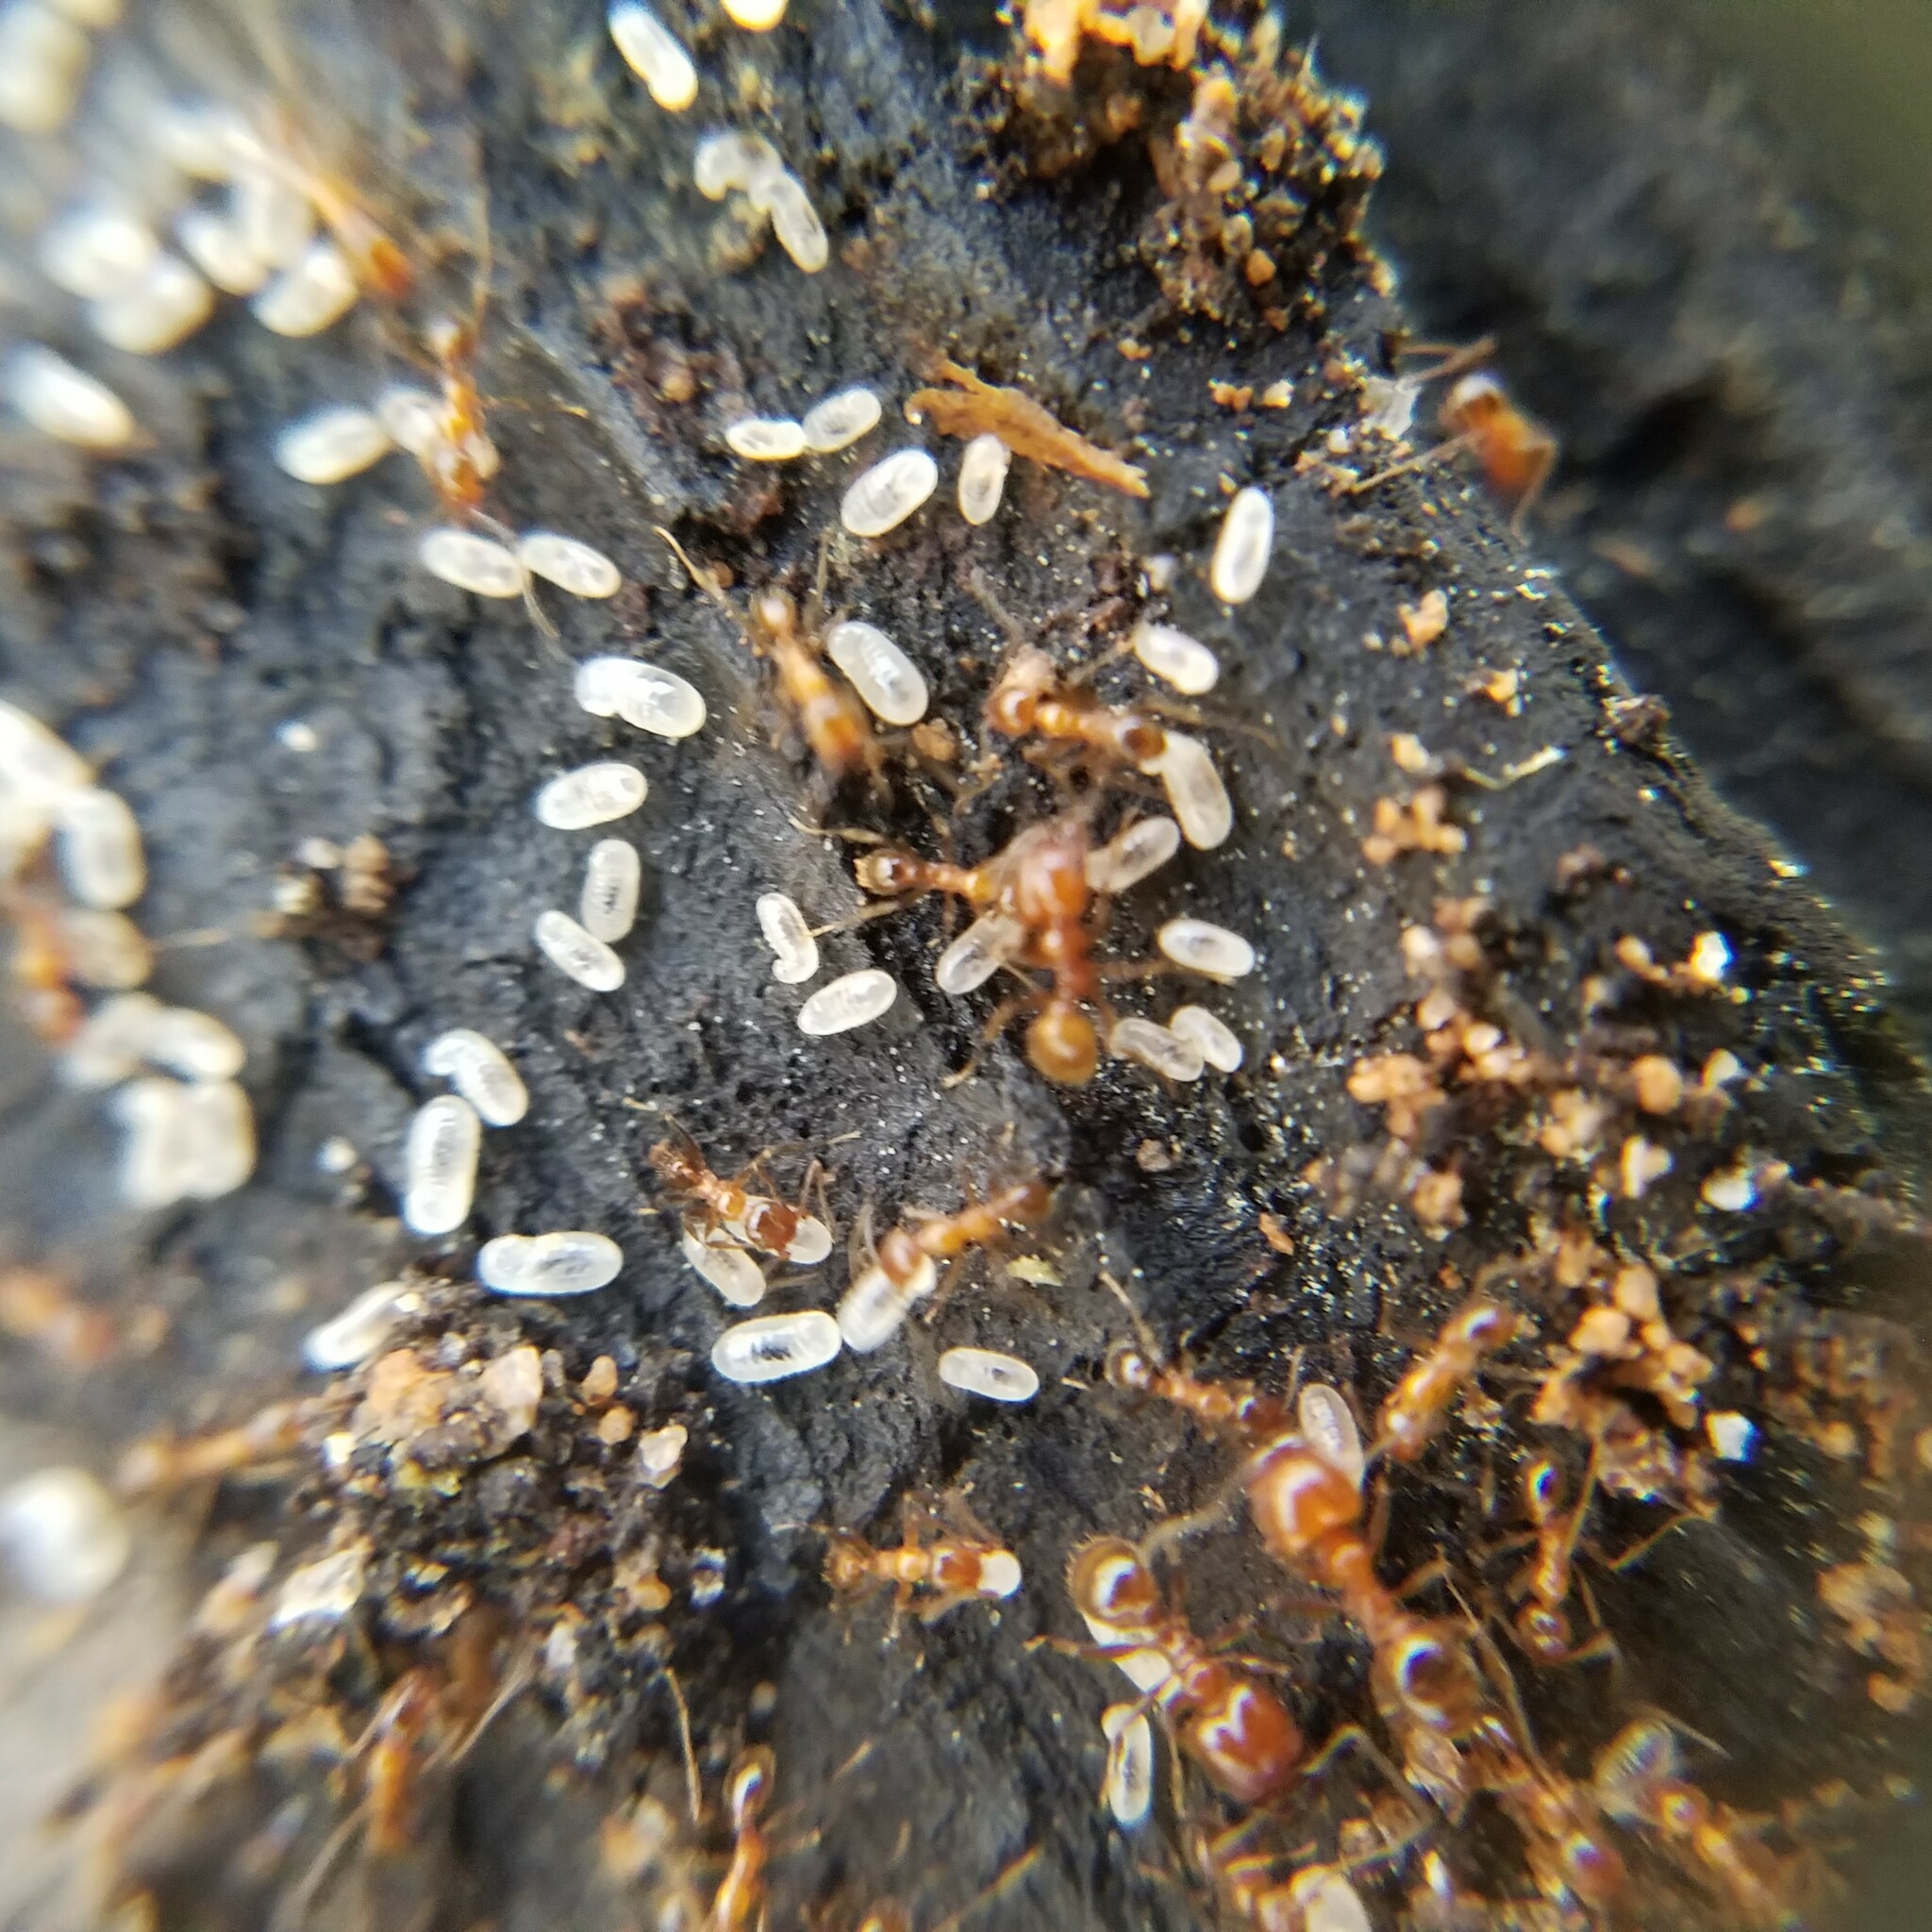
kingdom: Animalia
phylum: Arthropoda
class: Insecta
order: Hymenoptera
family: Formicidae
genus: Pheidole
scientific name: Pheidole dentata
